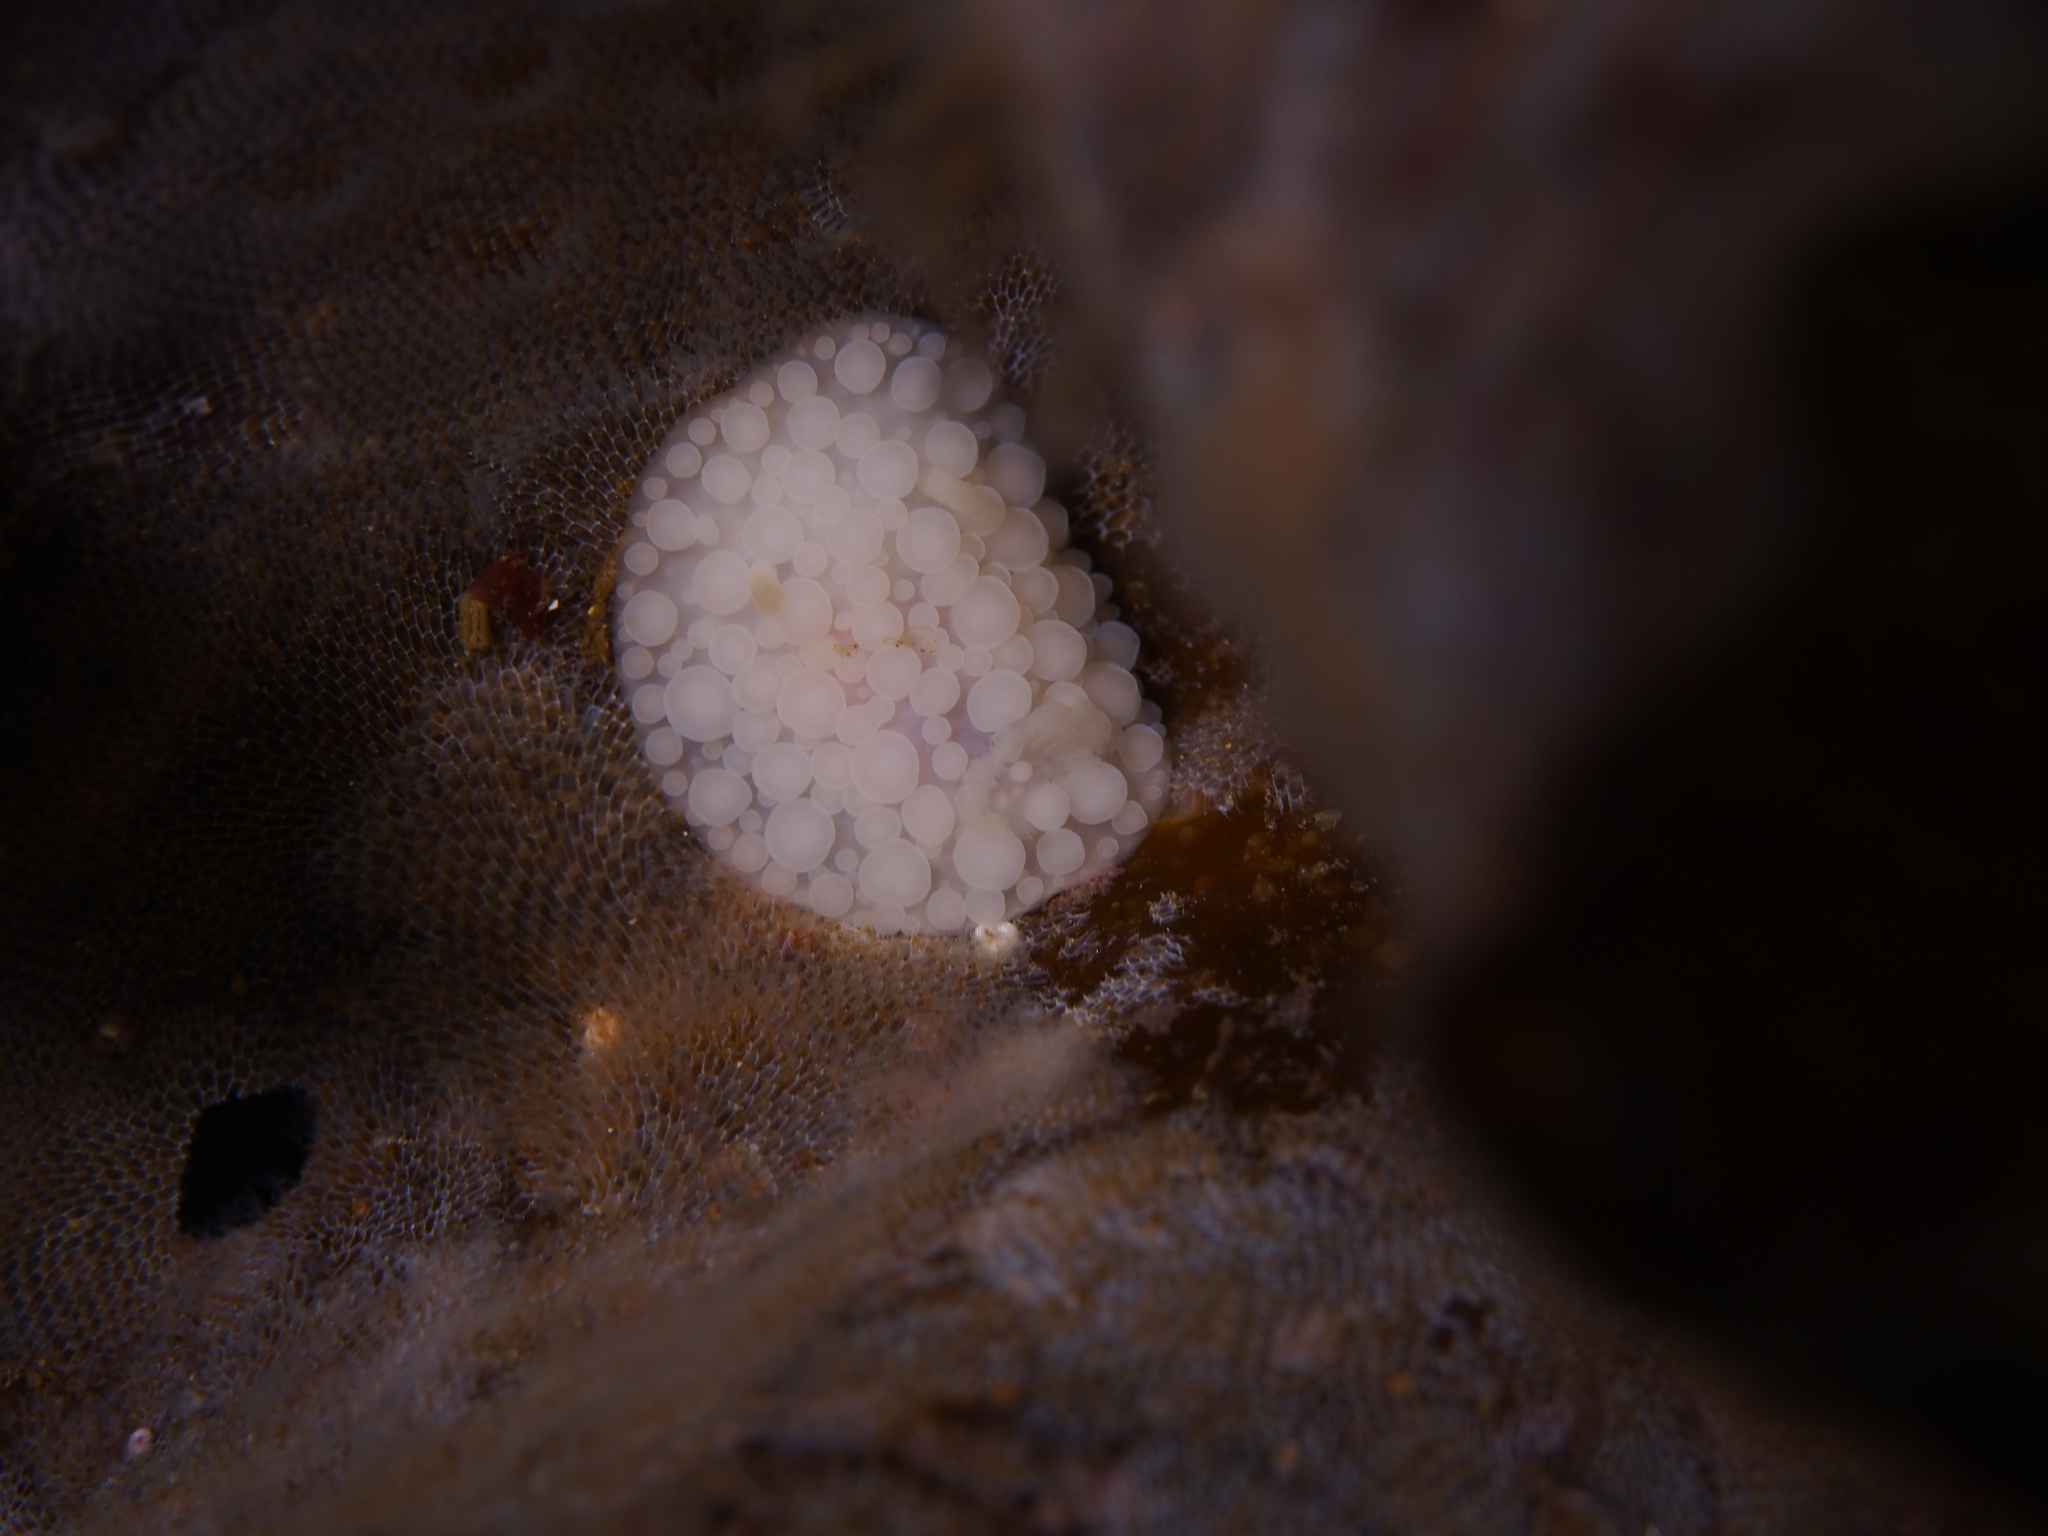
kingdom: Animalia
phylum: Mollusca
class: Gastropoda
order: Nudibranchia
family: Onchidorididae
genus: Adalaria
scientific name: Adalaria loveni
